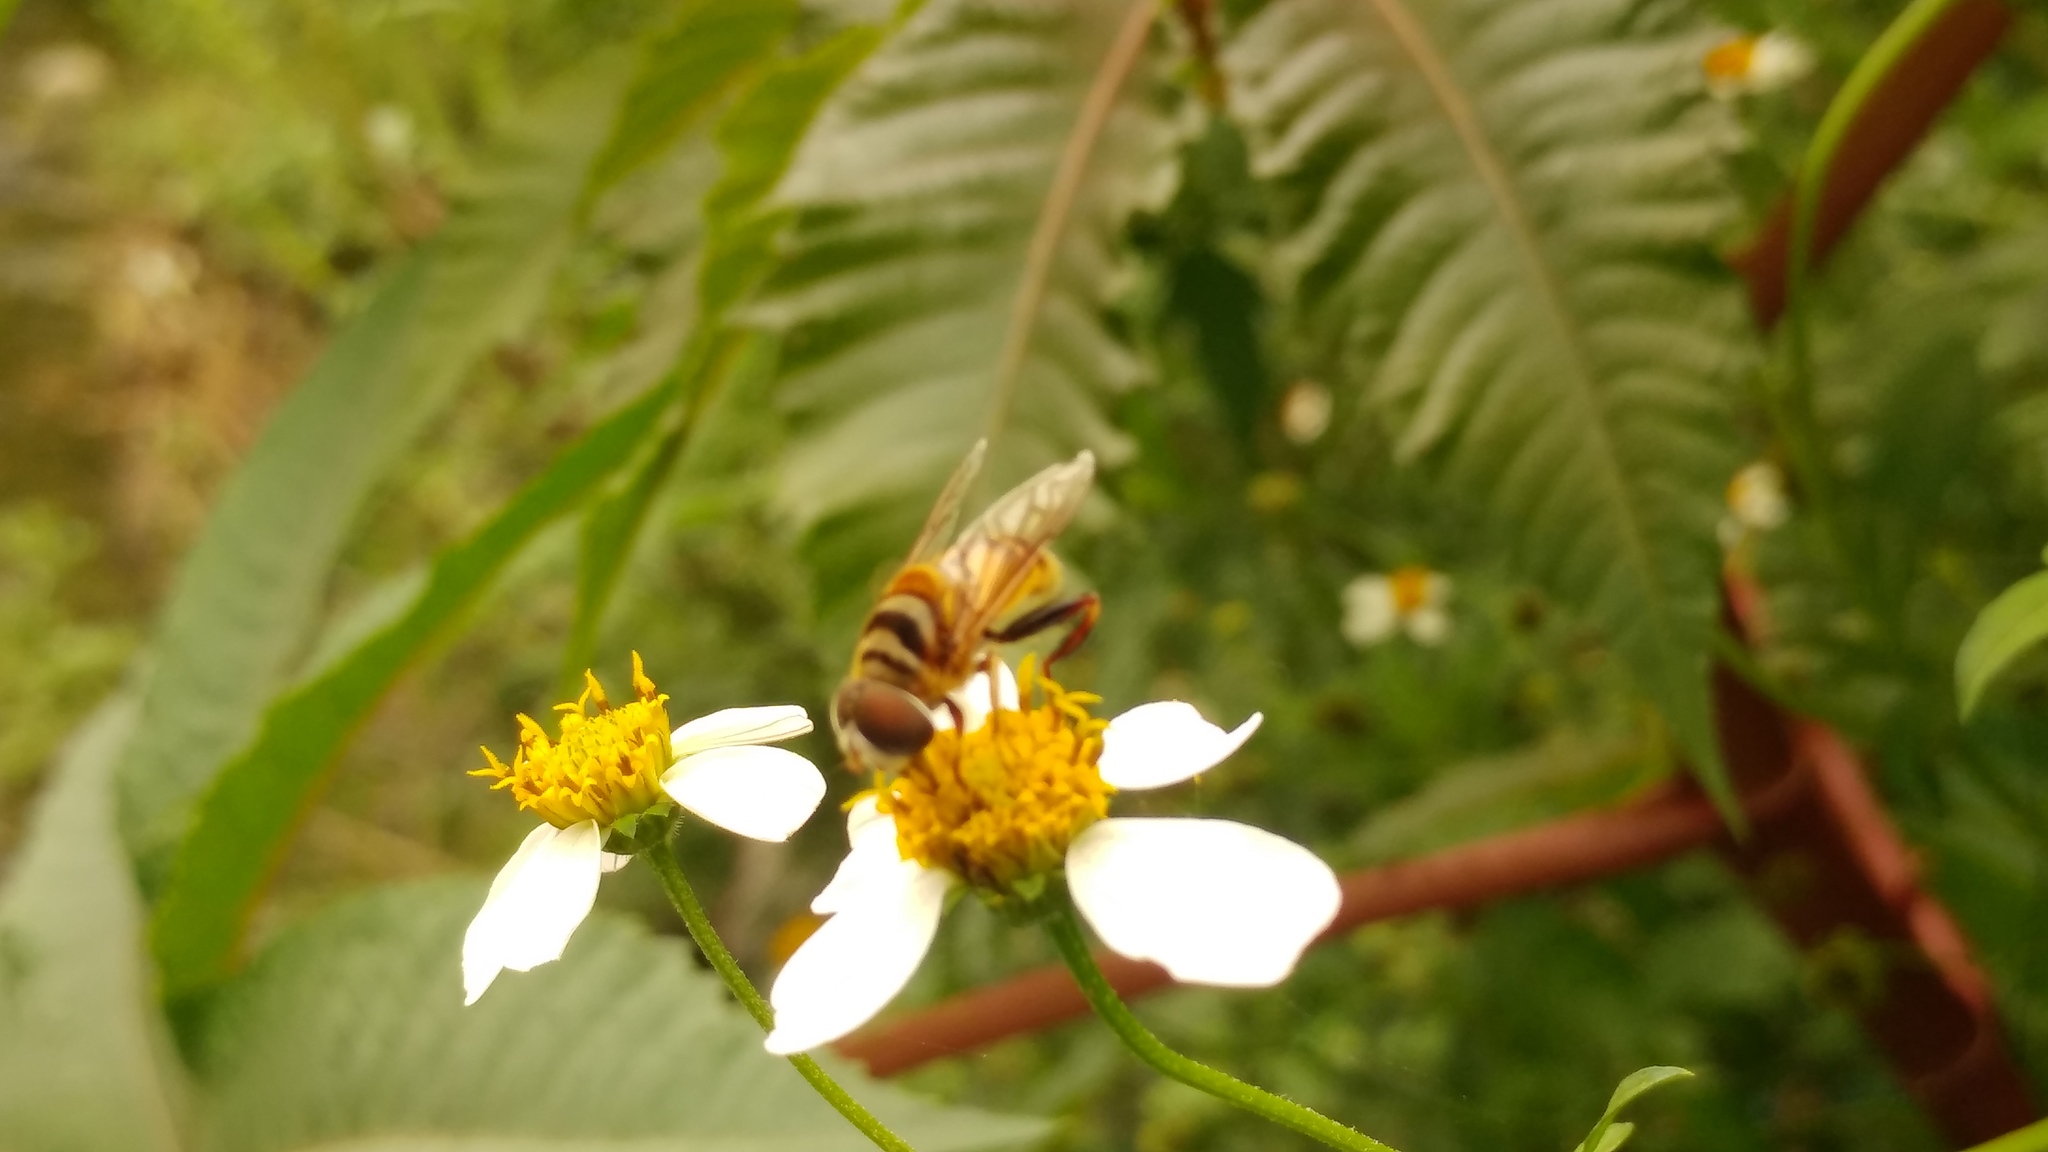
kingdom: Animalia
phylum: Arthropoda
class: Insecta
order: Diptera
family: Syrphidae
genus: Palpada
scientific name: Palpada vinetorum
